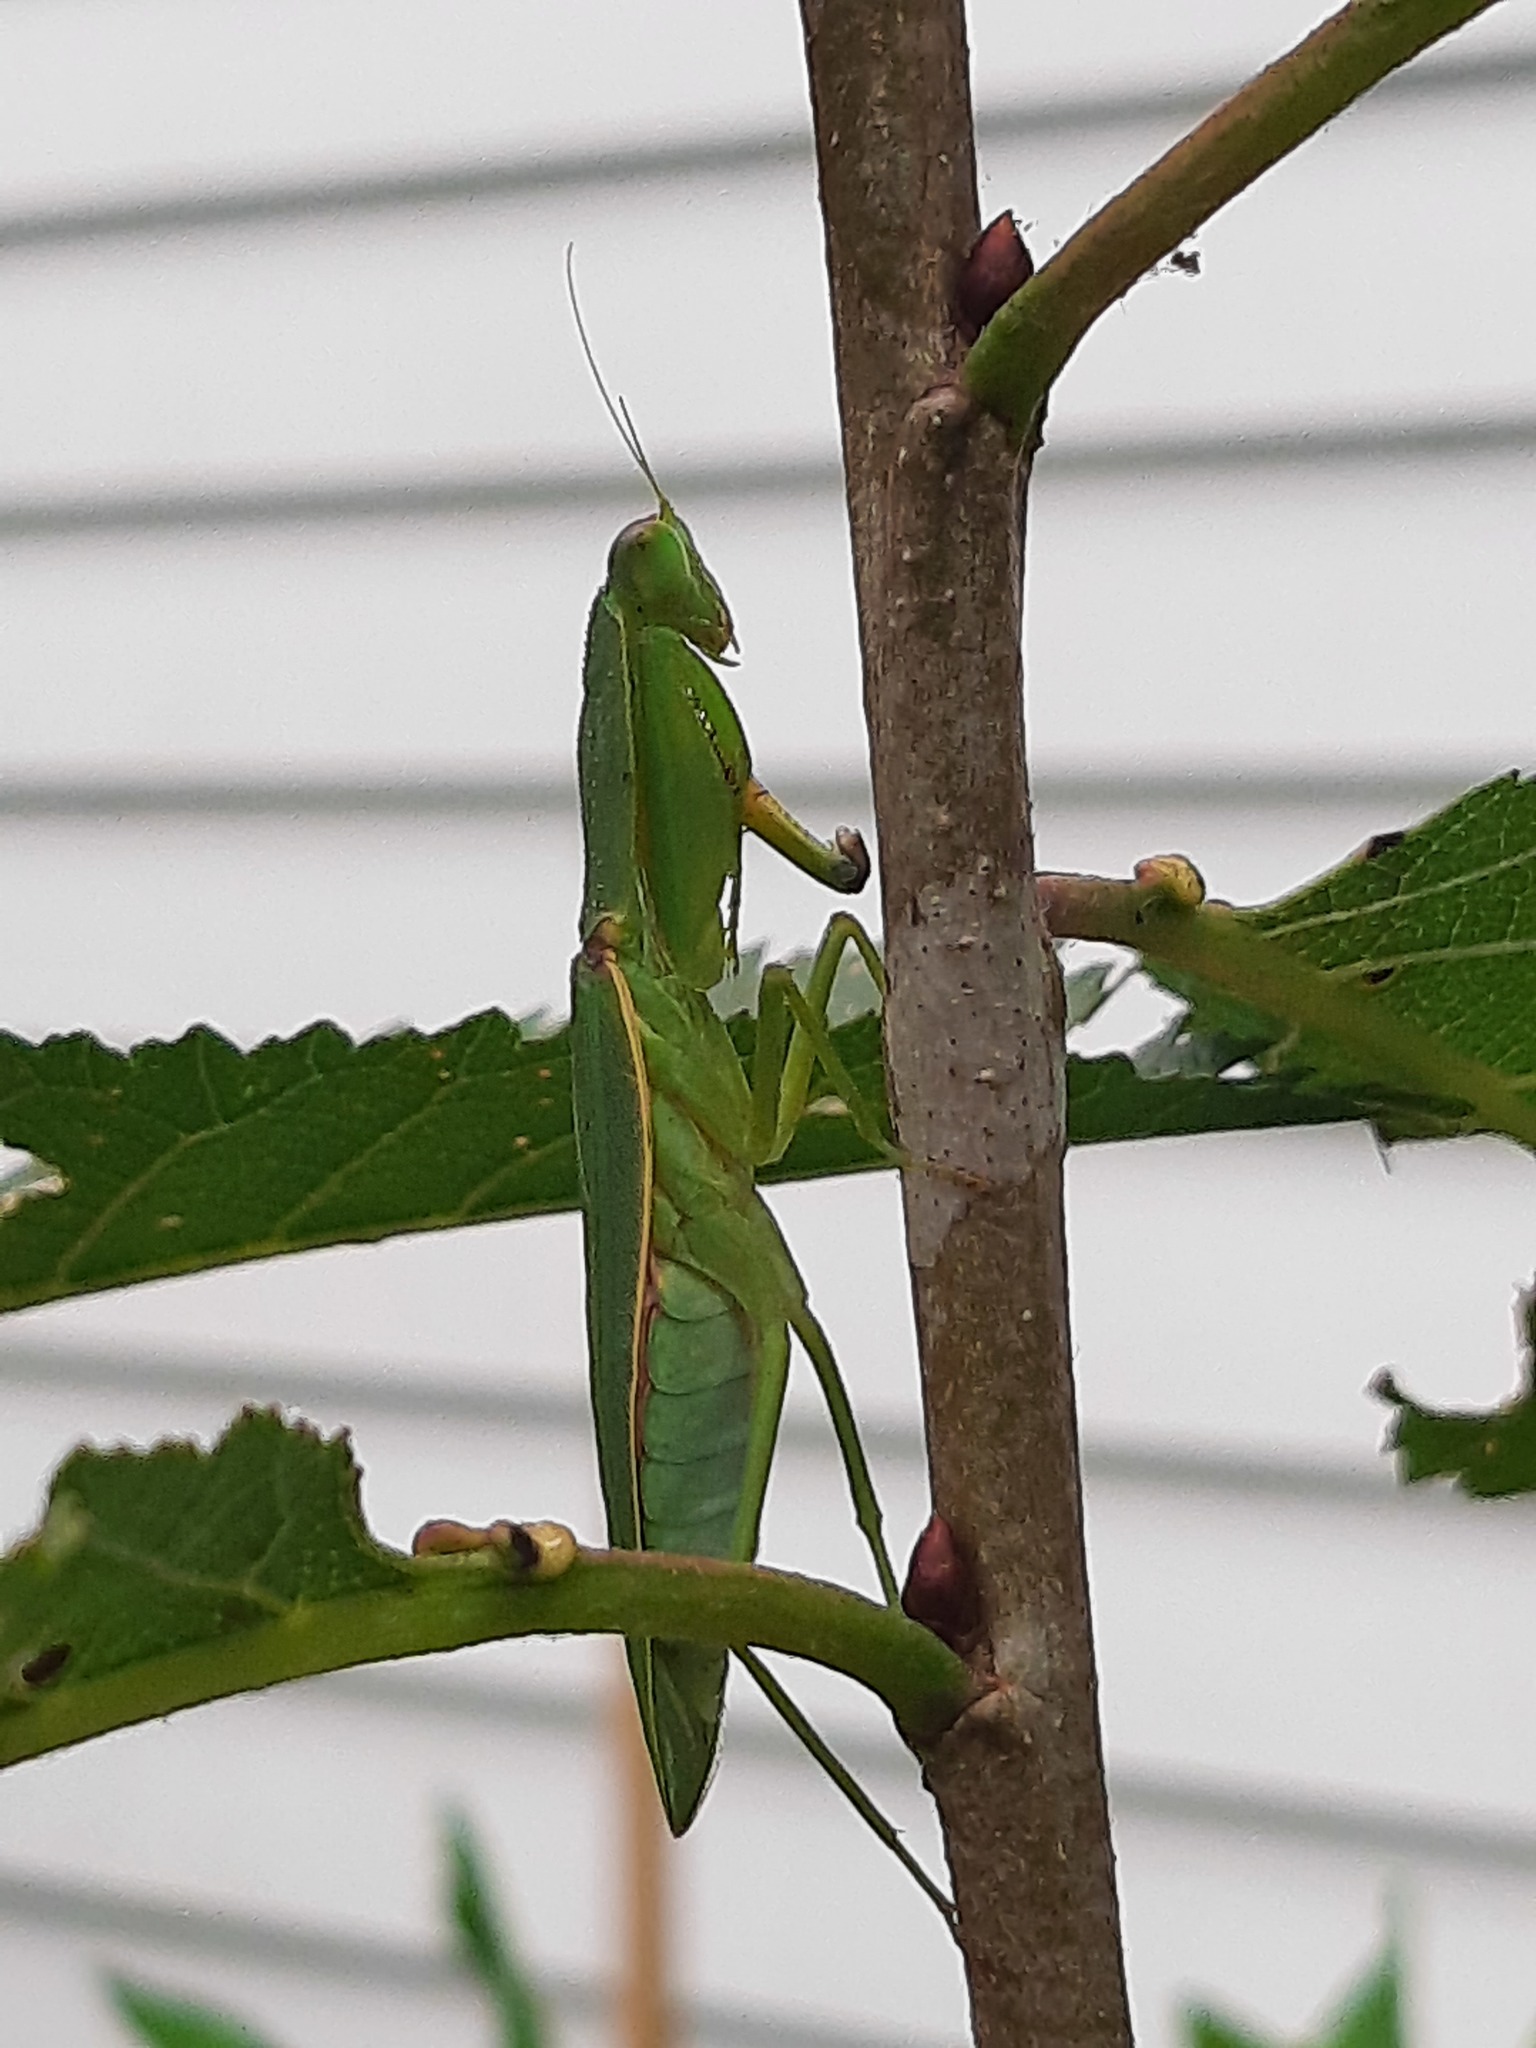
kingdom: Animalia
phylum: Arthropoda
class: Insecta
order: Mantodea
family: Mantidae
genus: Orthodera
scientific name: Orthodera novaezealandiae
